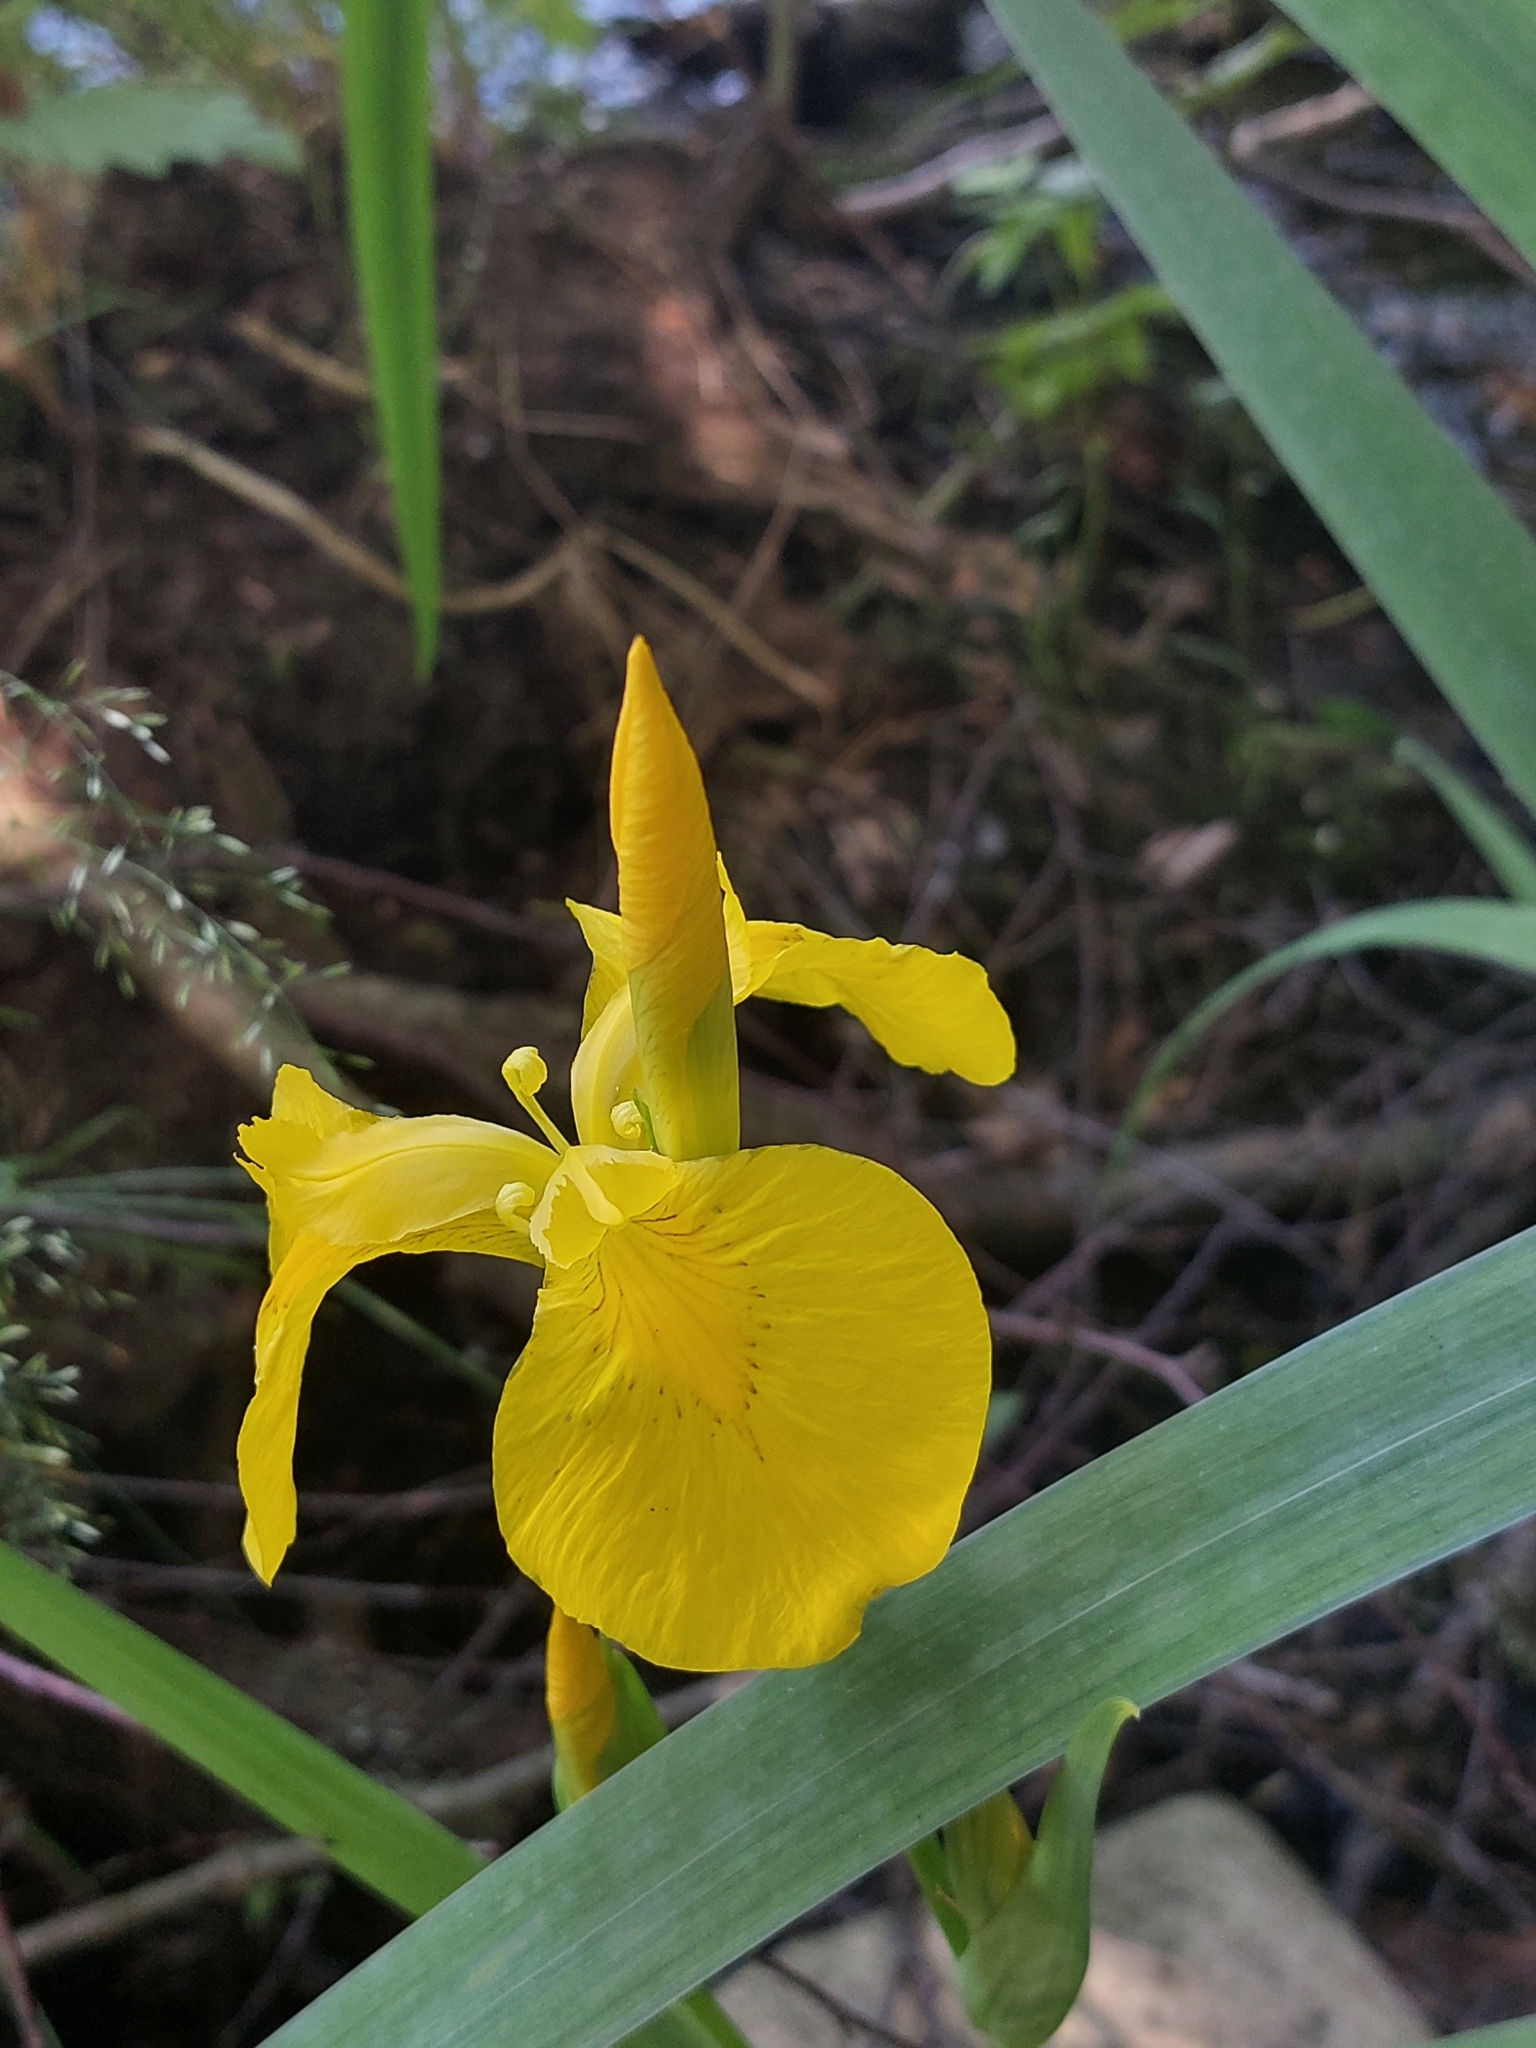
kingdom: Plantae
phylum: Tracheophyta
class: Liliopsida
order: Asparagales
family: Iridaceae
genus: Iris
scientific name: Iris pseudacorus
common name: Yellow flag
